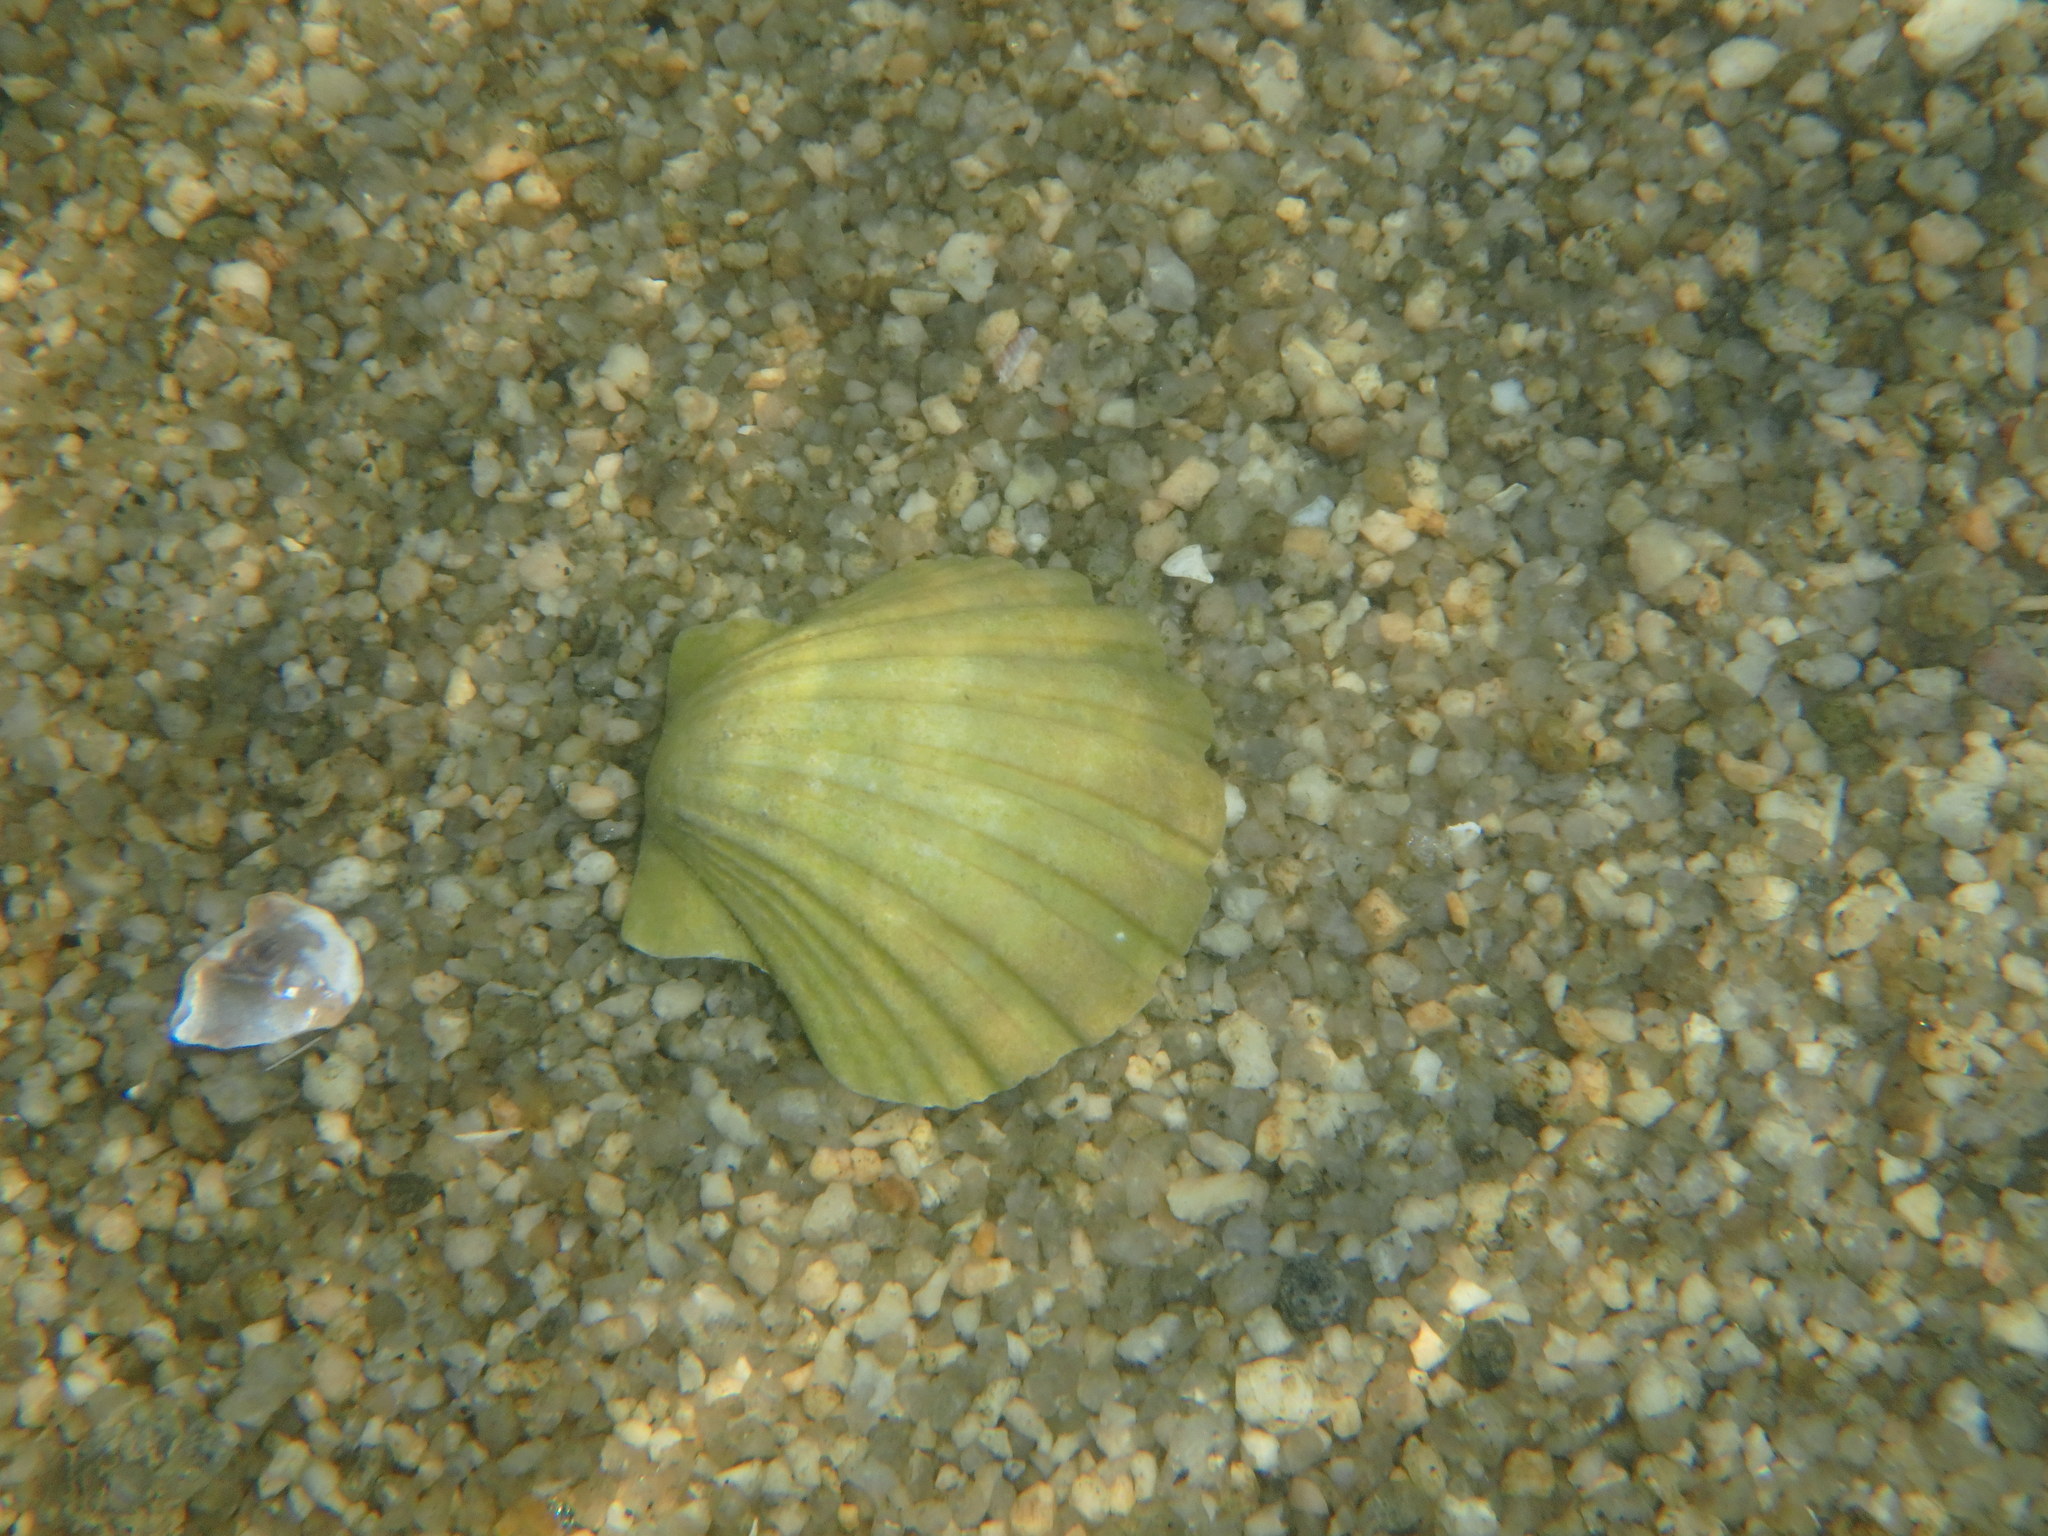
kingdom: Animalia
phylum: Mollusca
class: Bivalvia
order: Pectinida
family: Pectinidae
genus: Pecten
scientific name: Pecten albicans
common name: Japanese baking scallop
